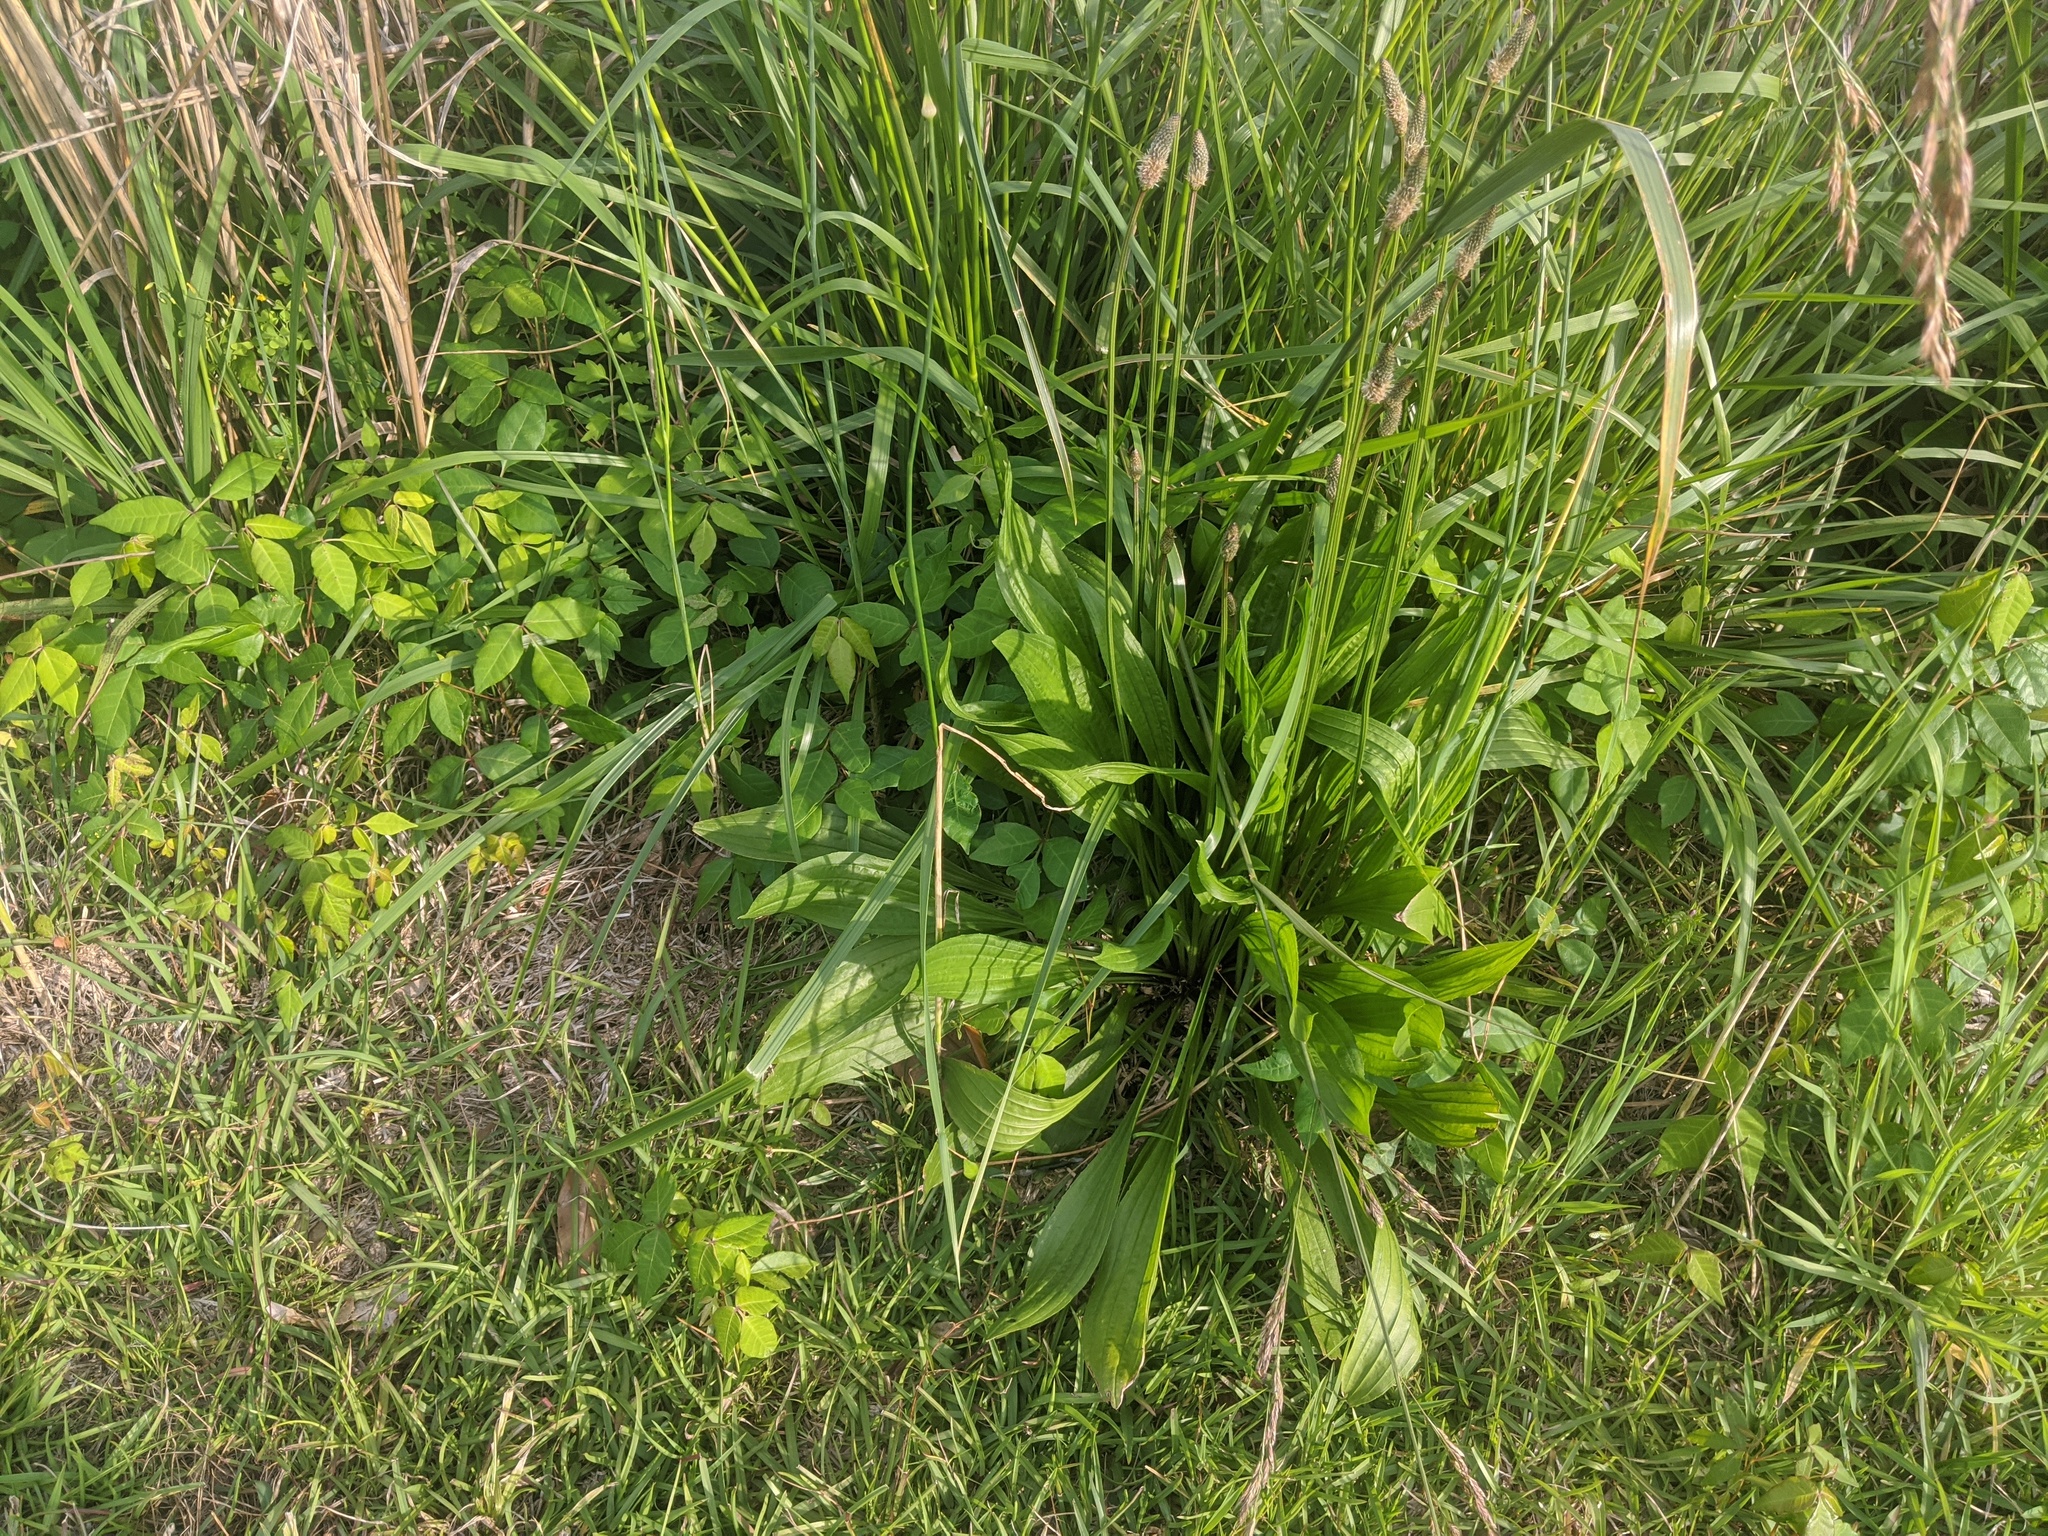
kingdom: Plantae
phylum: Tracheophyta
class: Magnoliopsida
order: Lamiales
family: Plantaginaceae
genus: Plantago
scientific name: Plantago lanceolata
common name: Ribwort plantain
